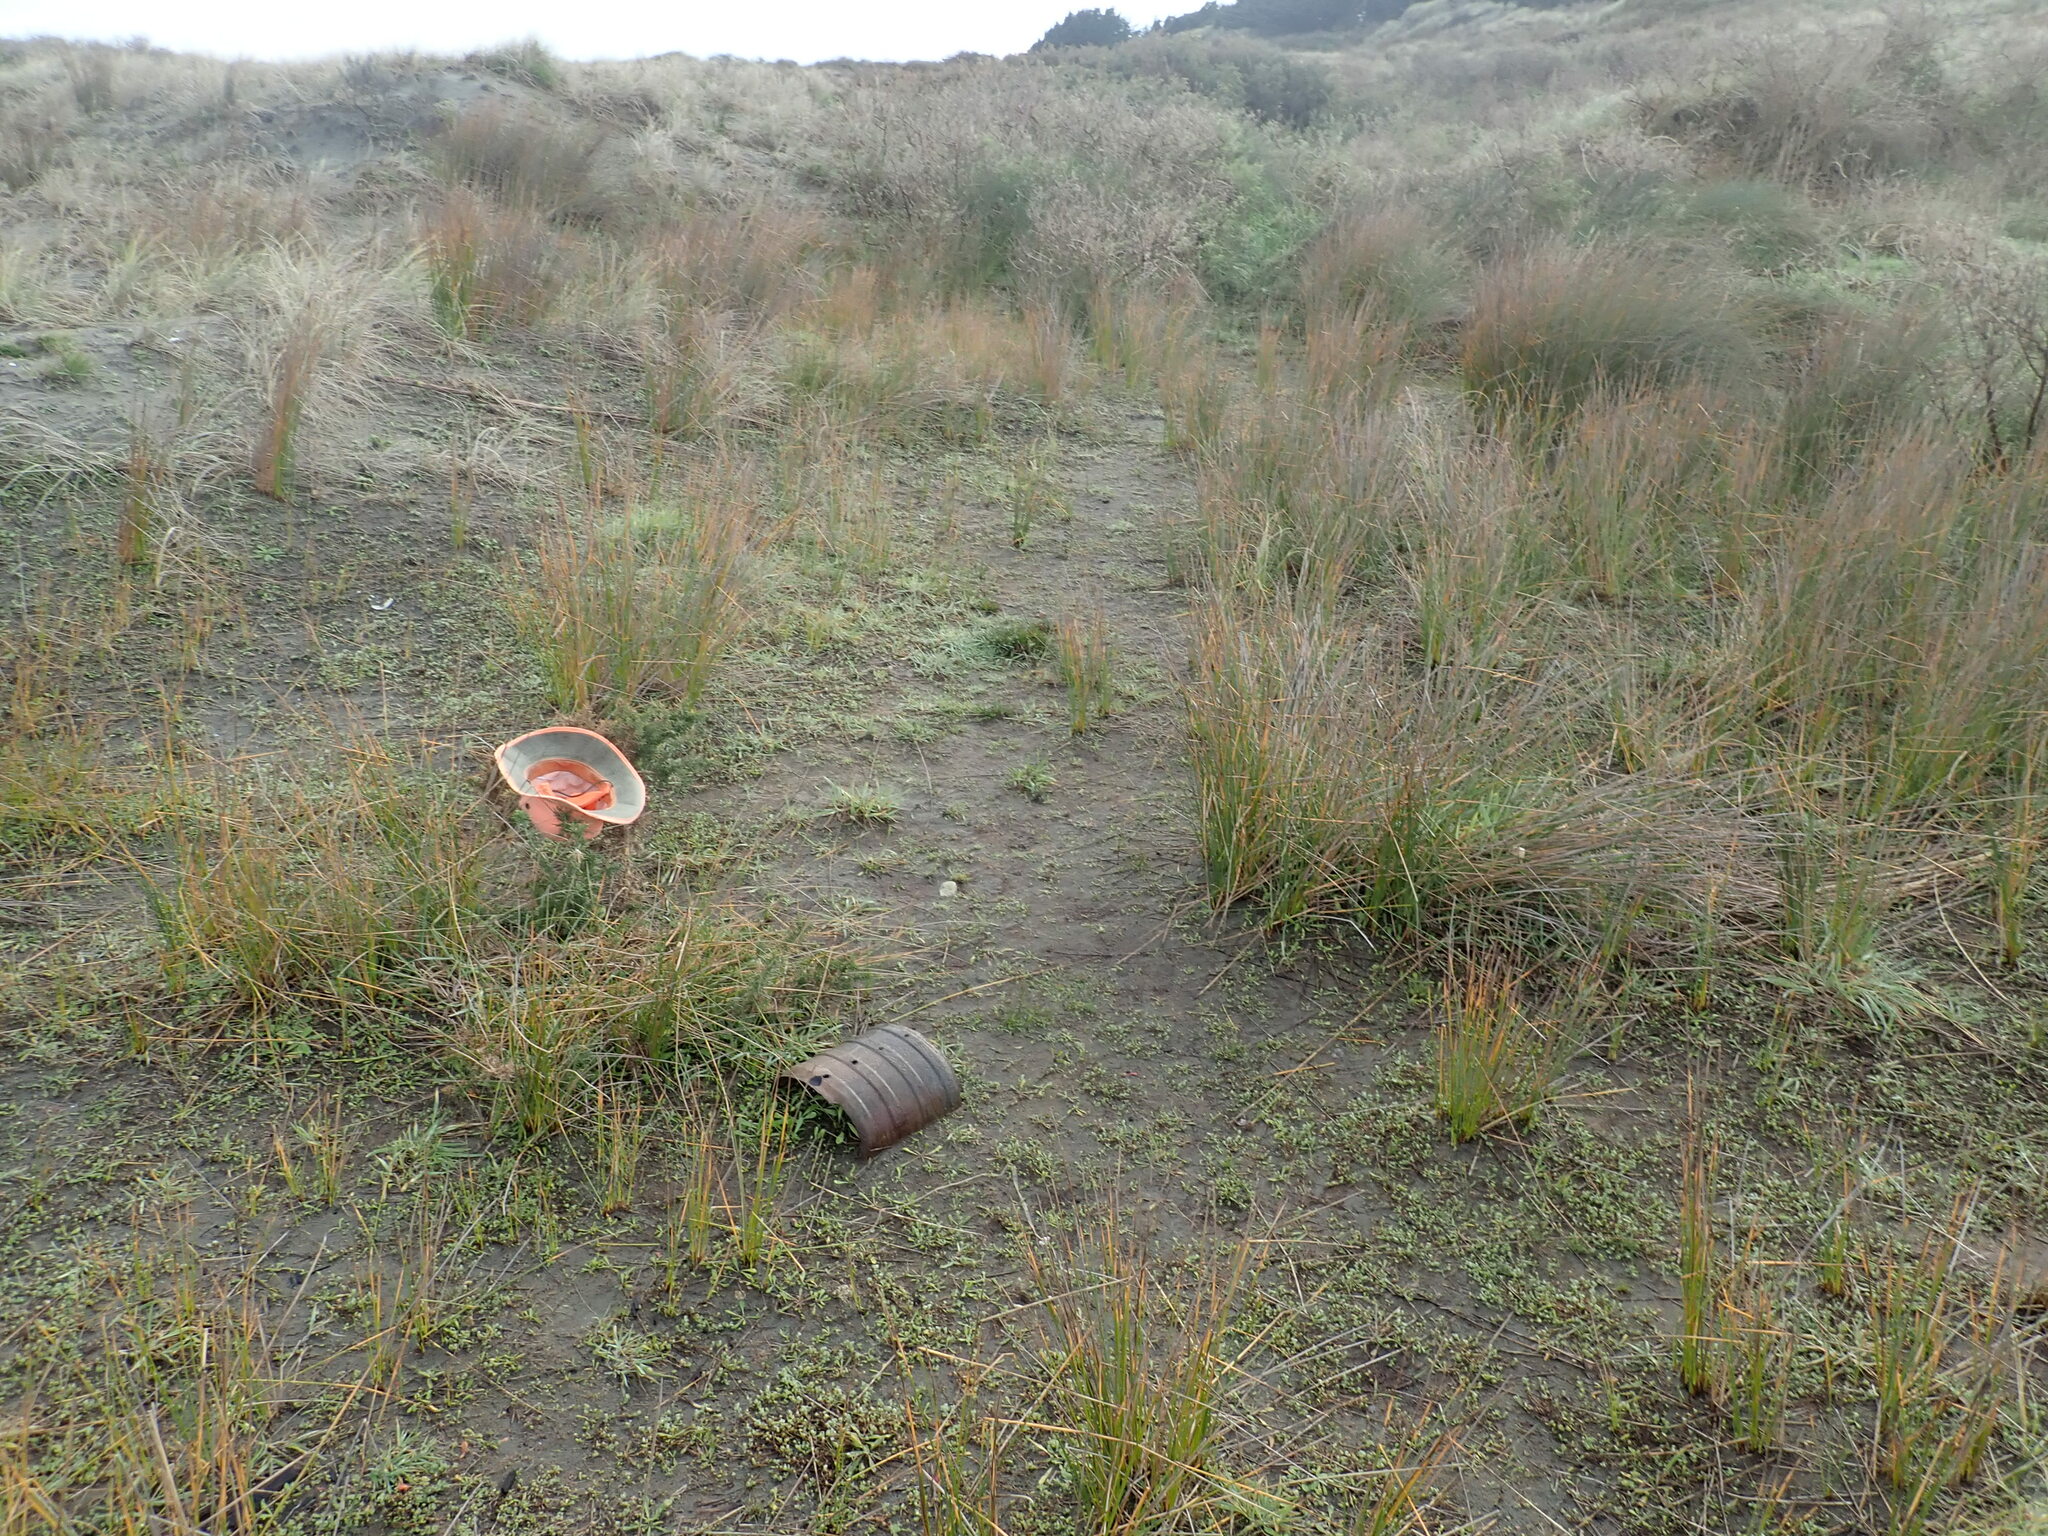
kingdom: Plantae
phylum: Tracheophyta
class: Magnoliopsida
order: Fabales
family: Fabaceae
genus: Ulex
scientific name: Ulex europaeus
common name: Common gorse
